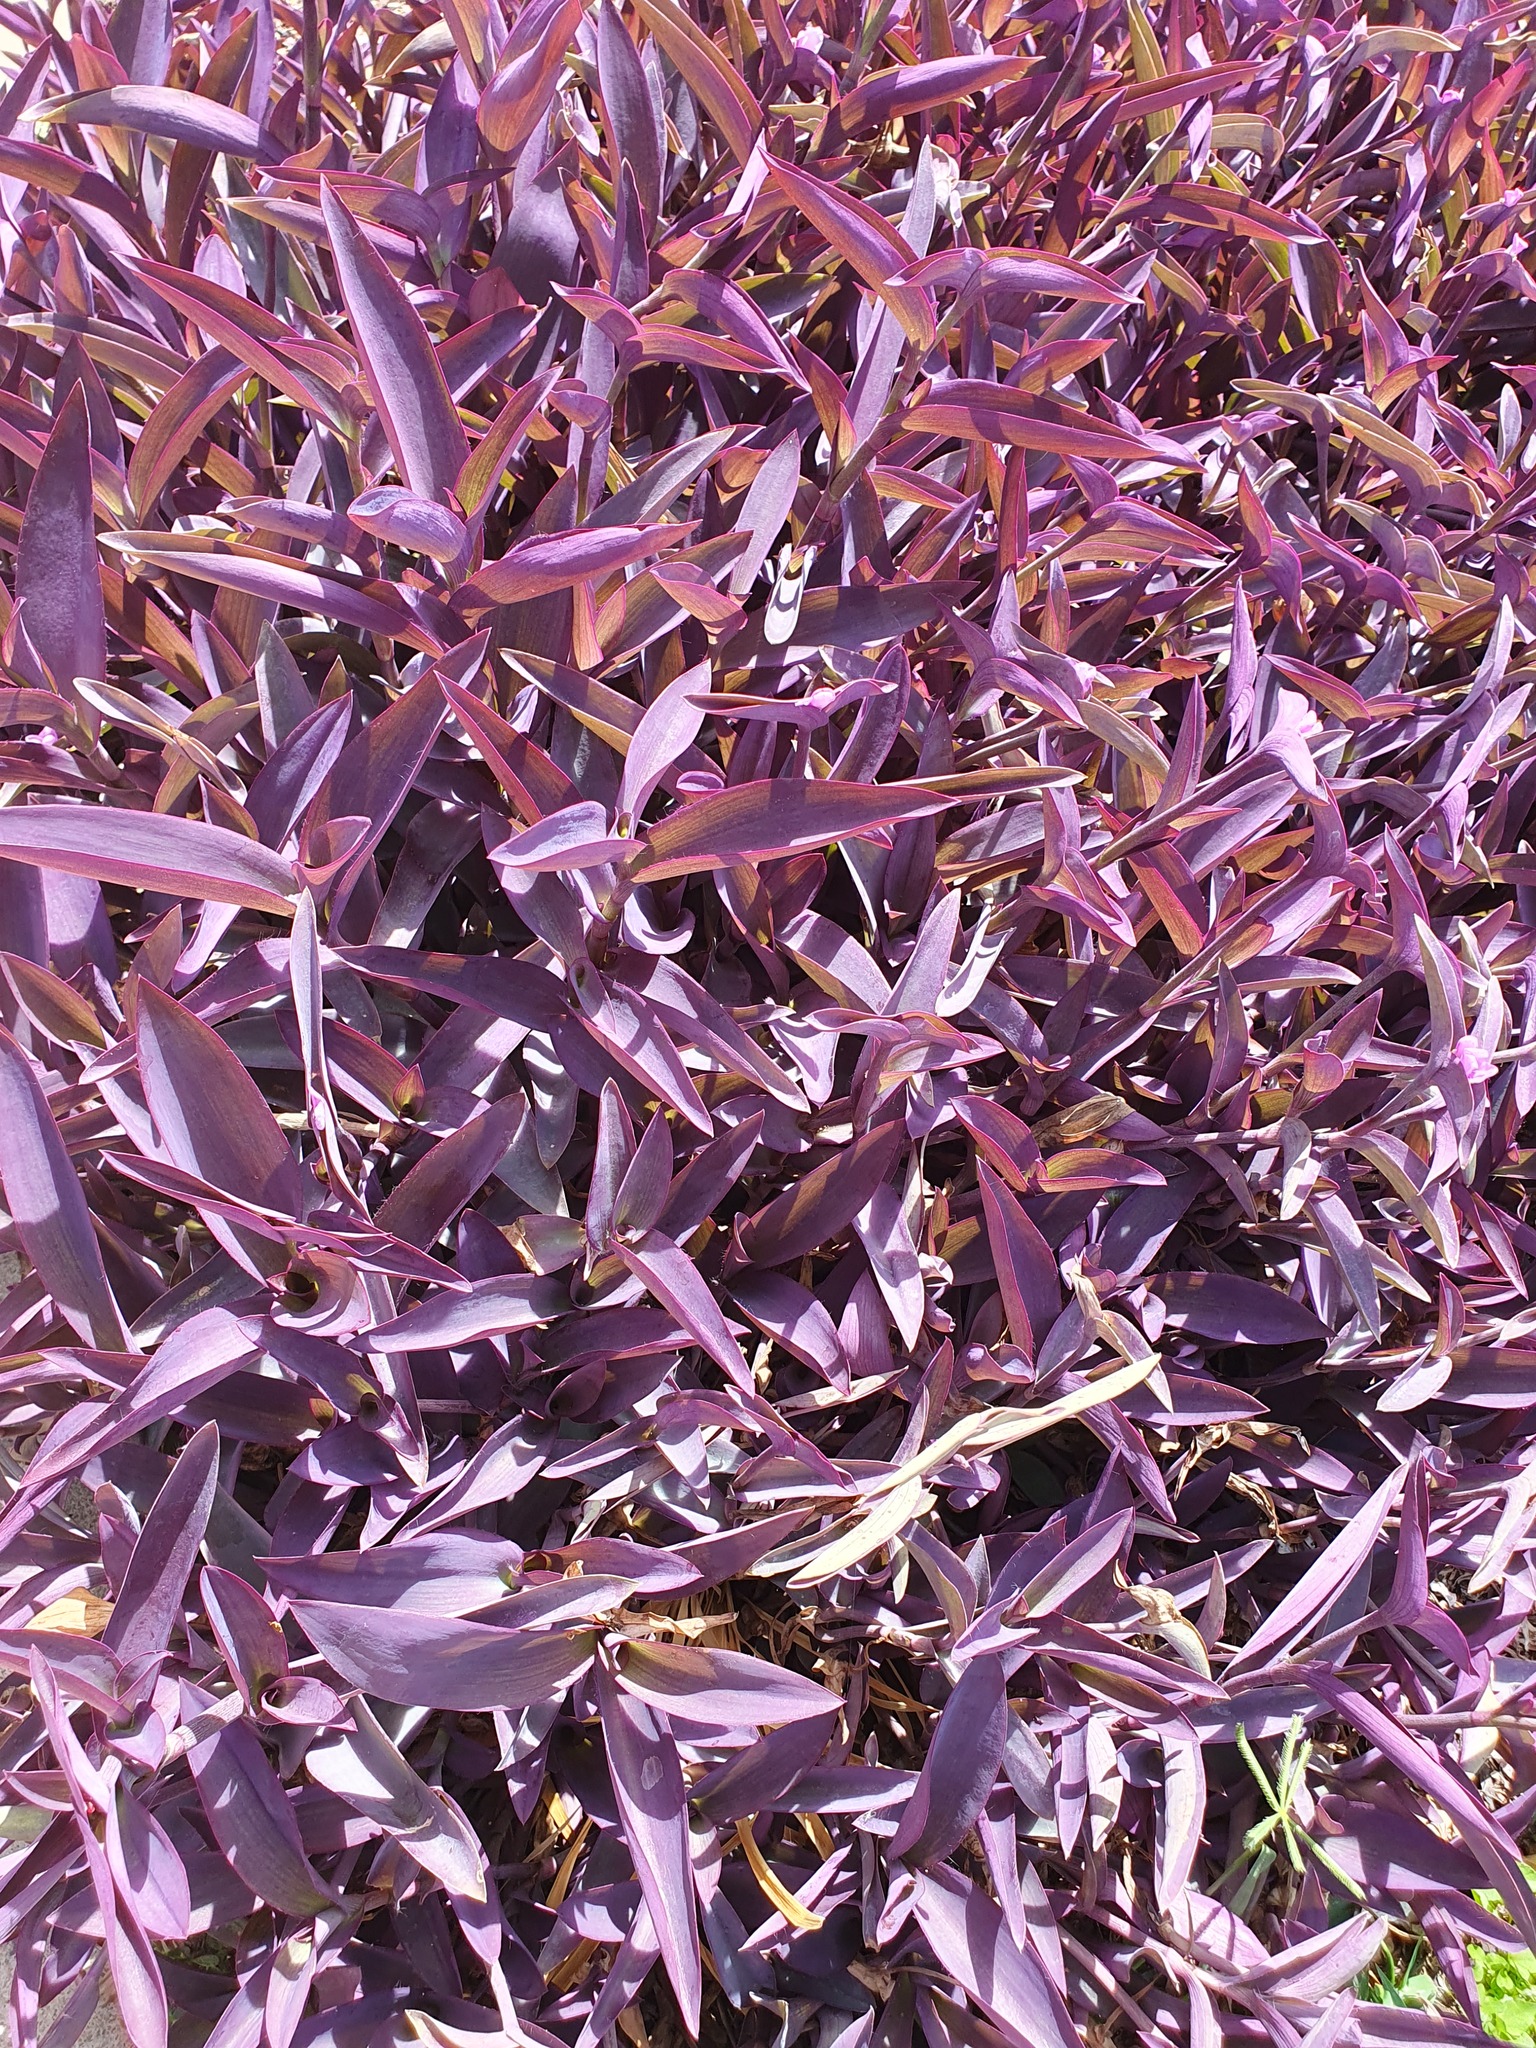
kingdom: Plantae
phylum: Tracheophyta
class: Liliopsida
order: Commelinales
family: Commelinaceae
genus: Tradescantia
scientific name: Tradescantia pallida
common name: Purpleheart
